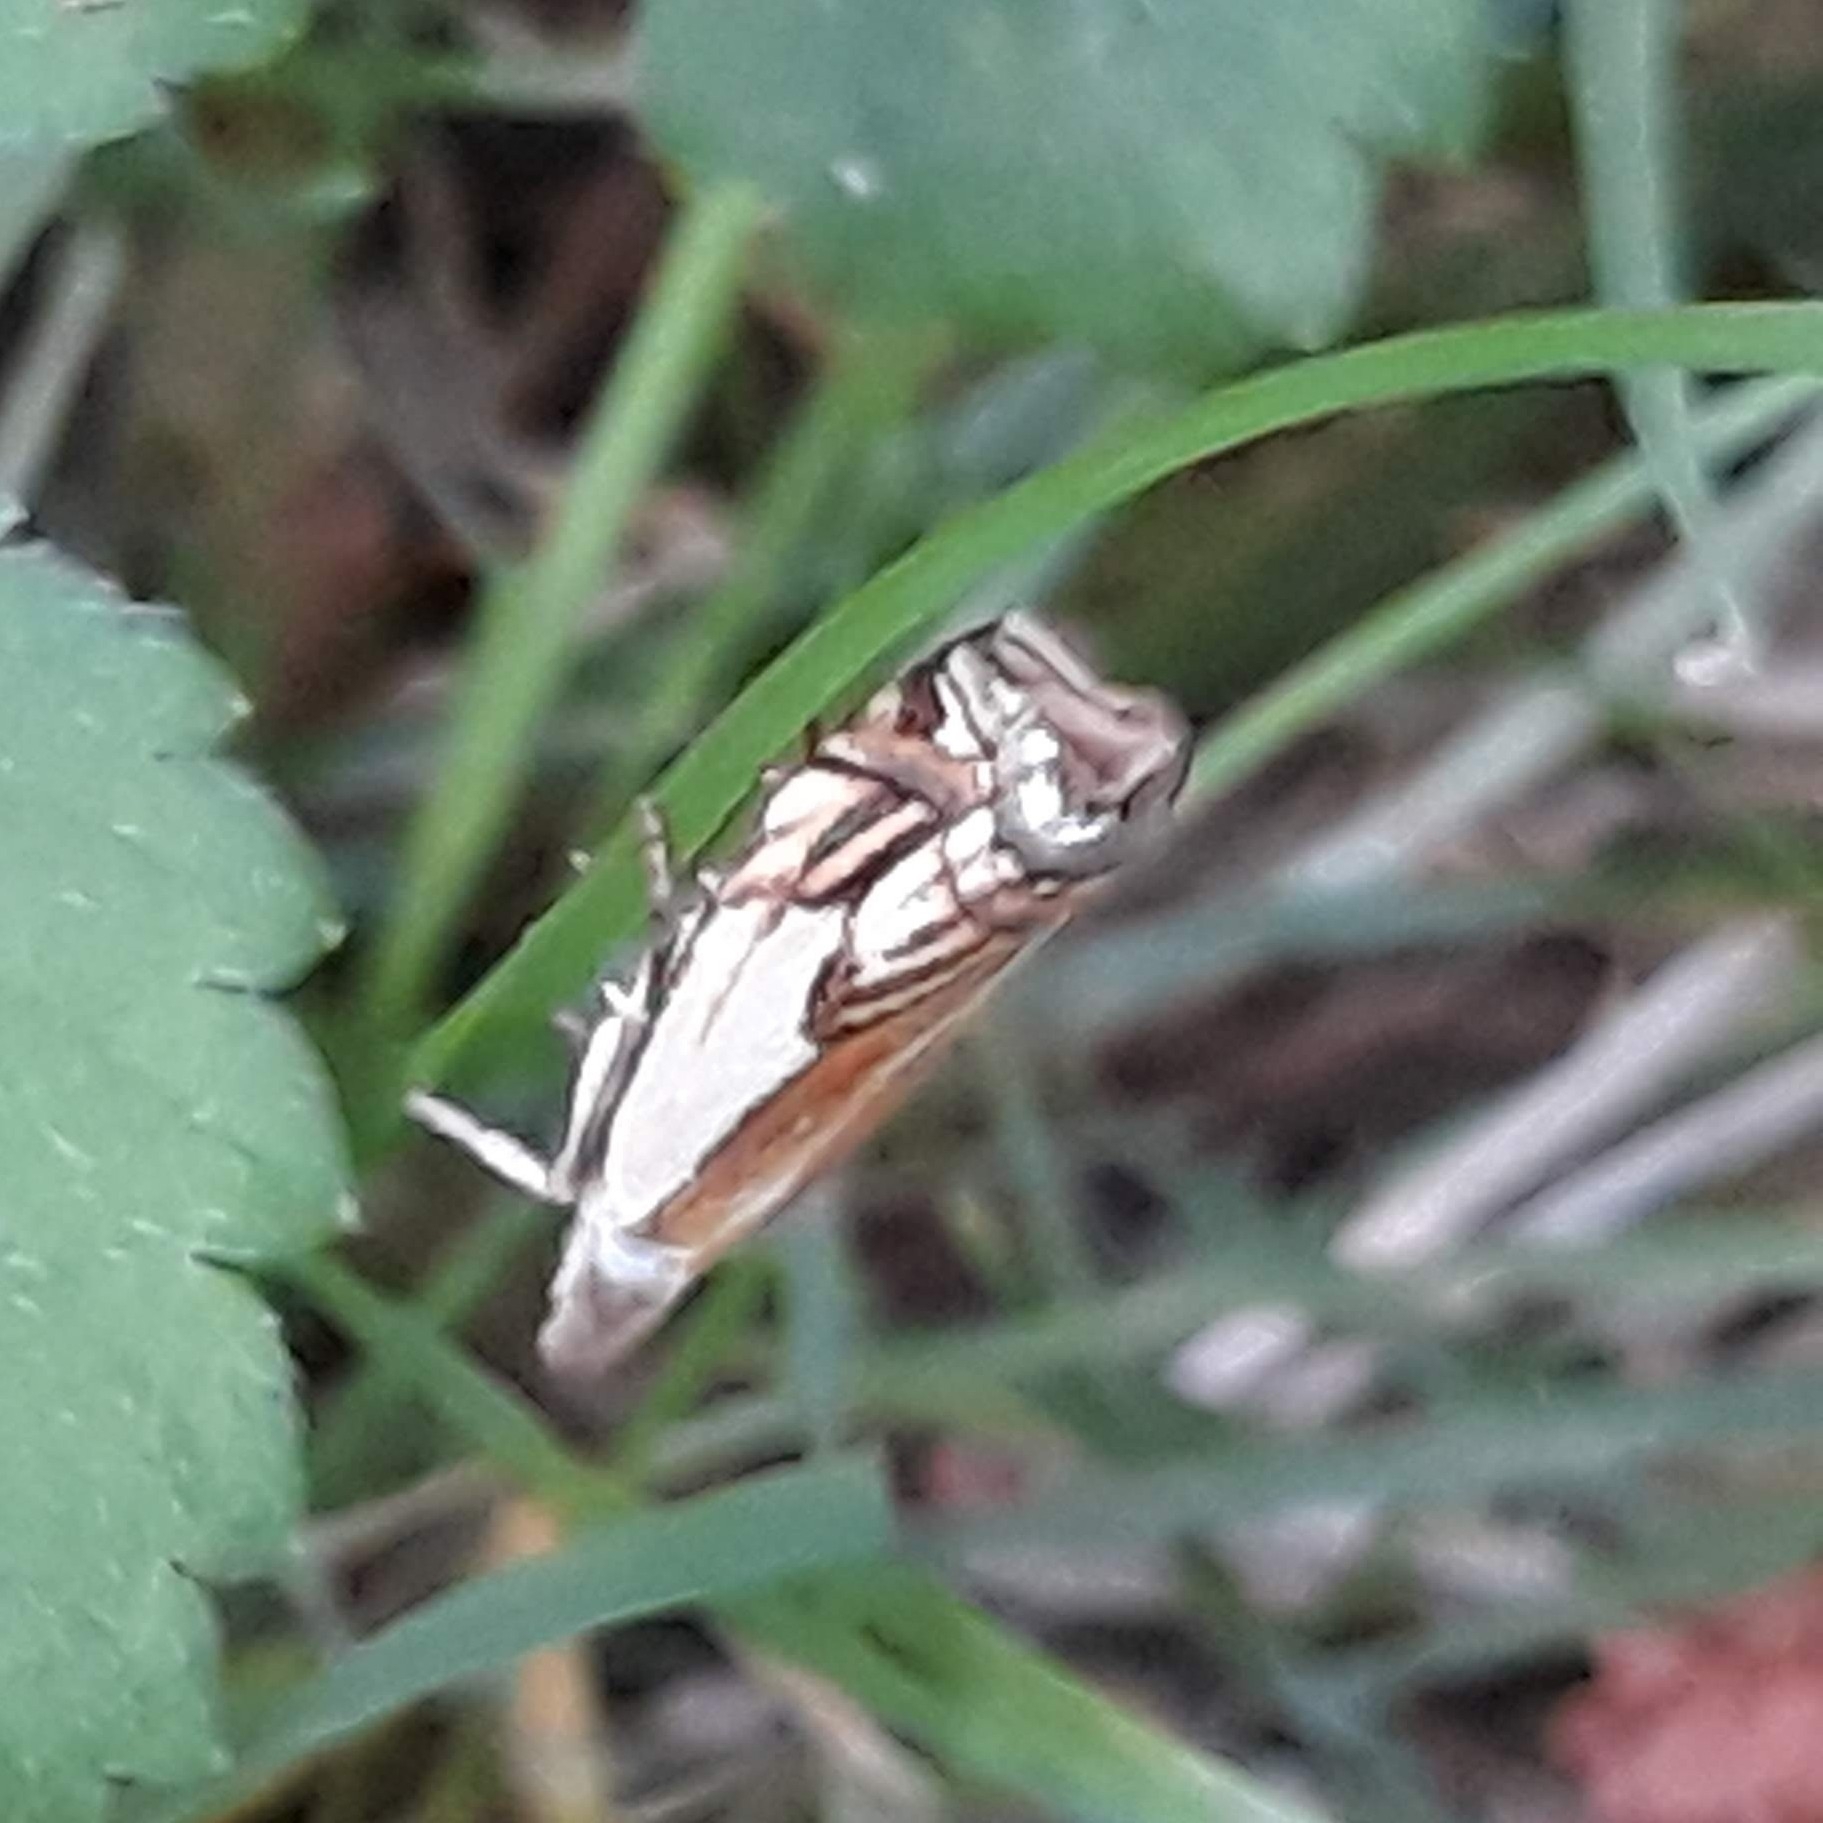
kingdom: Animalia
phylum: Arthropoda
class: Insecta
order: Lepidoptera
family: Crambidae
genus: Crambus
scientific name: Crambus agitatellus
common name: Double-banded grass-veneer
